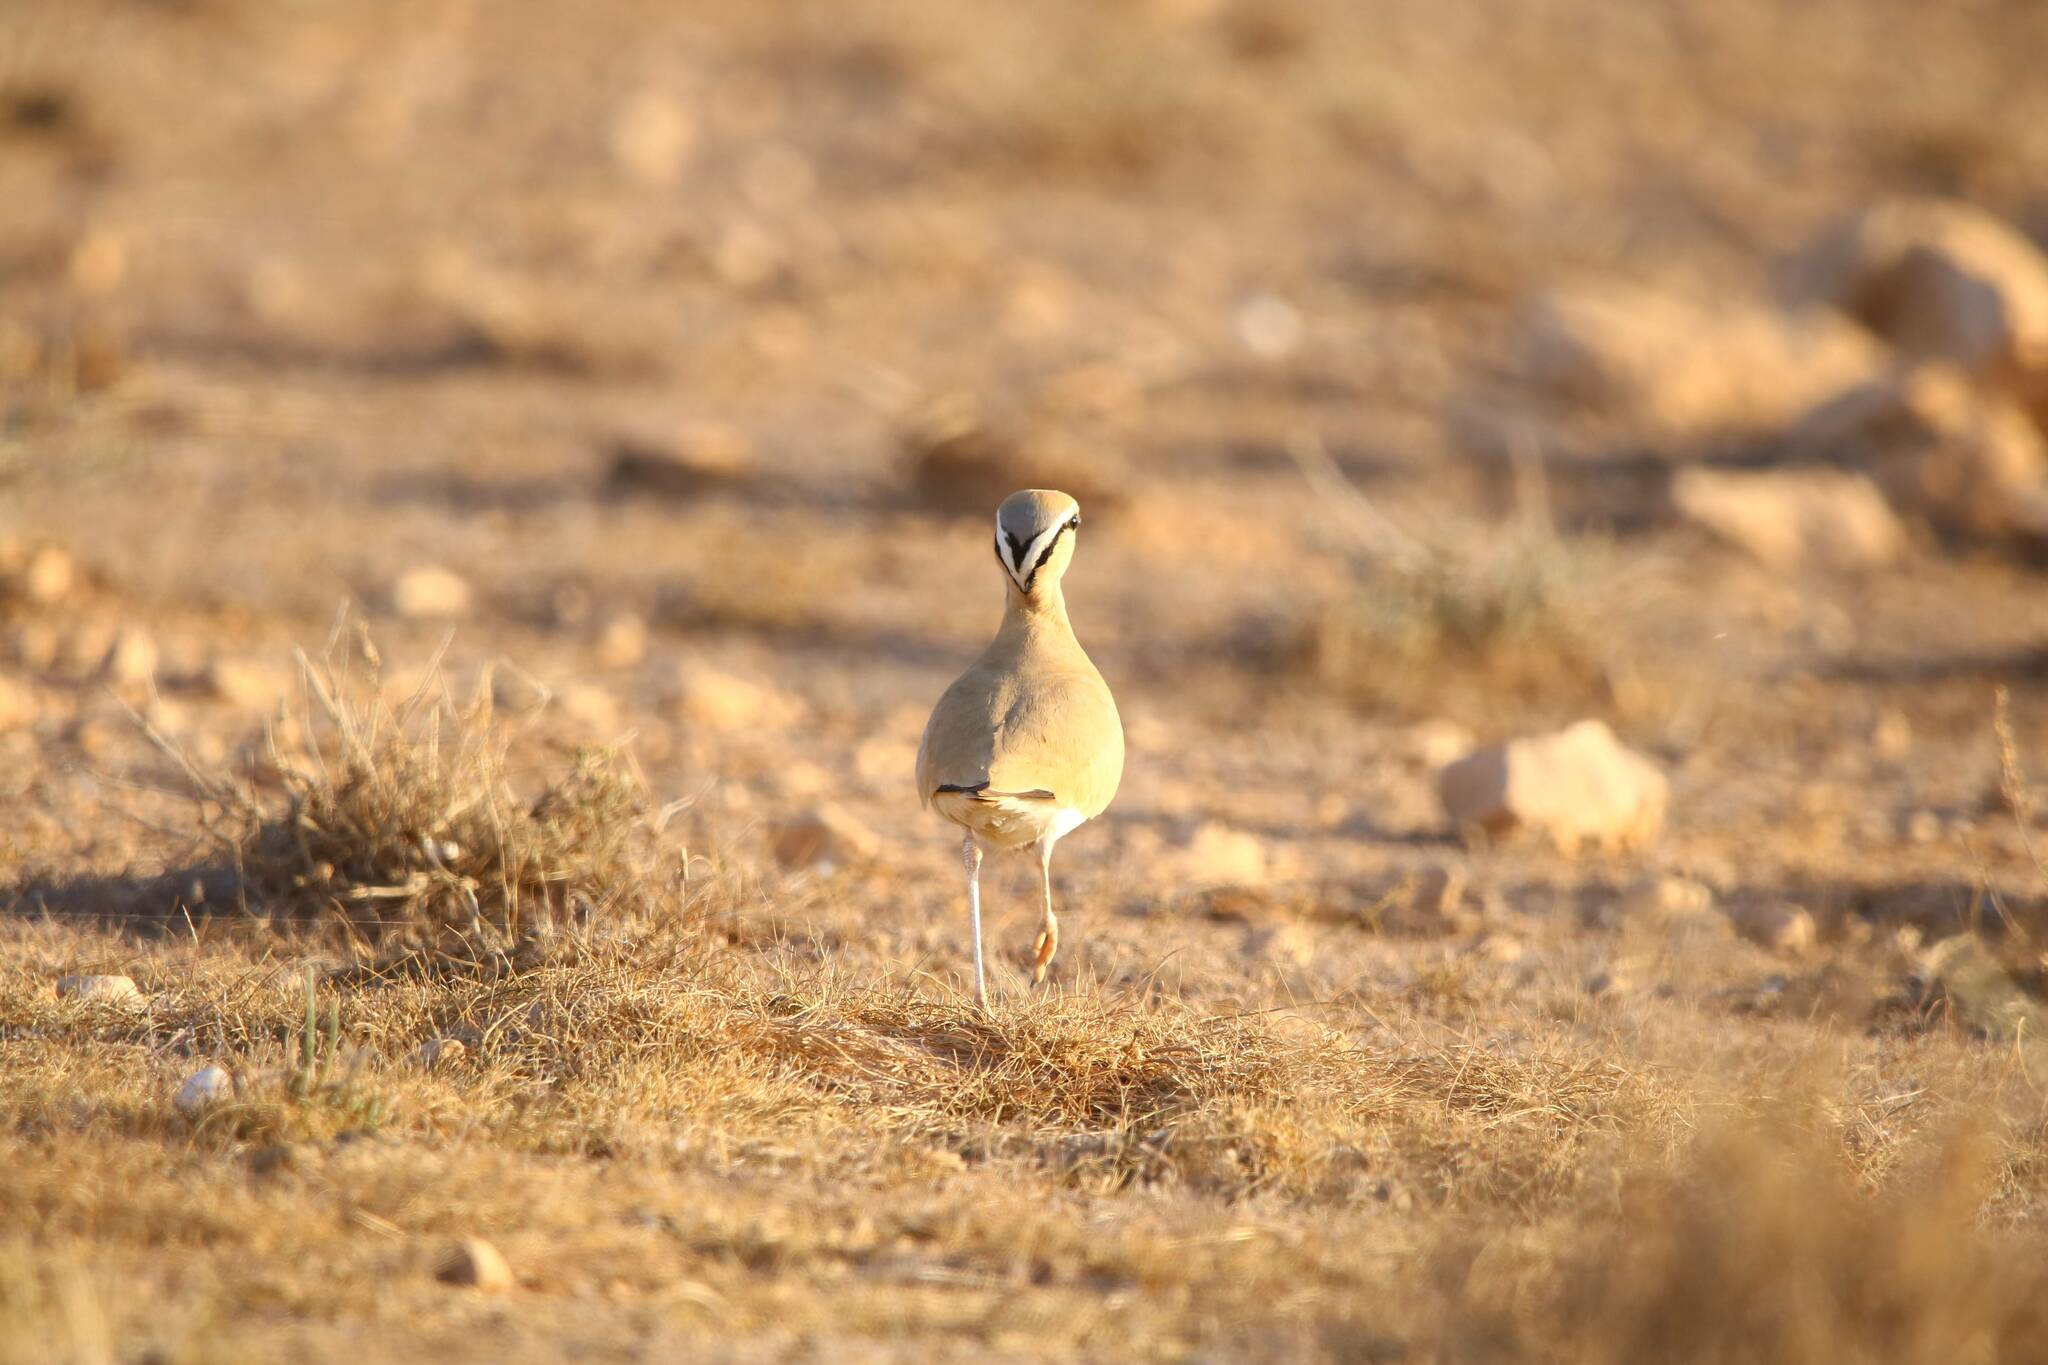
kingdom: Animalia
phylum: Chordata
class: Aves
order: Charadriiformes
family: Glareolidae
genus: Cursorius
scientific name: Cursorius cursor
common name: Cream-colored courser
